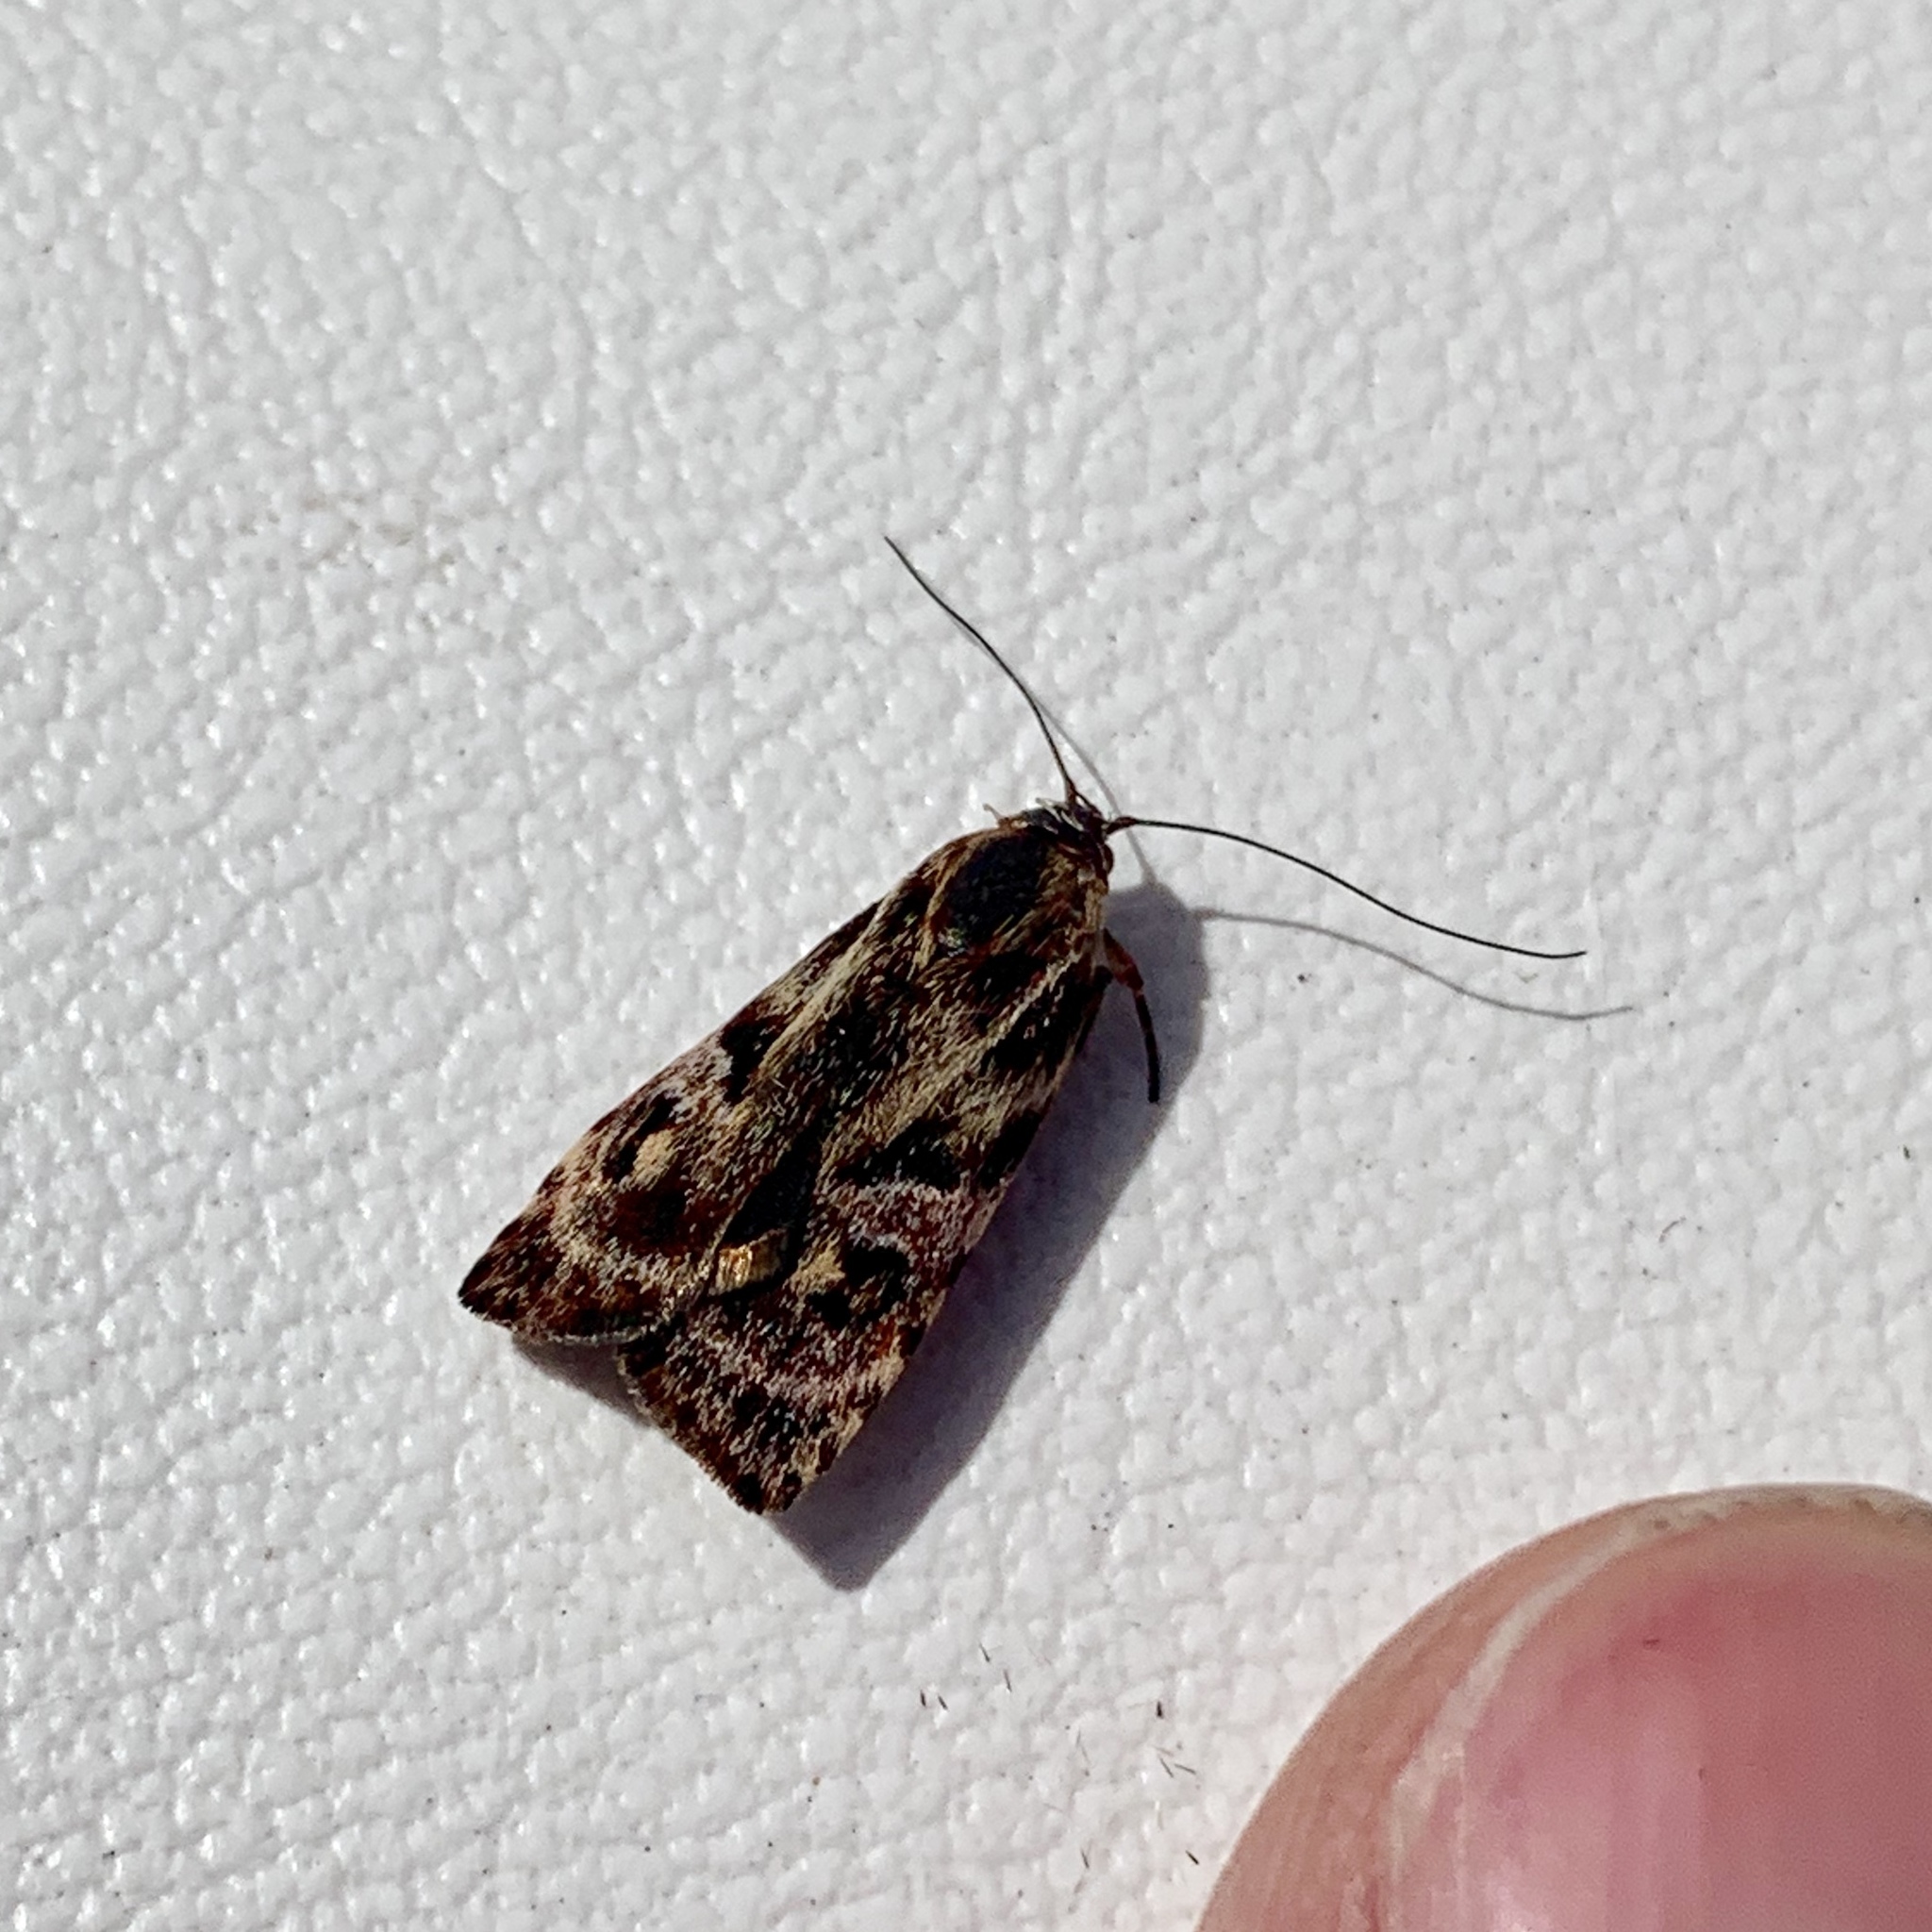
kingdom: Animalia
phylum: Arthropoda
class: Insecta
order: Lepidoptera
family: Oecophoridae
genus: Hierodoris
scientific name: Hierodoris
